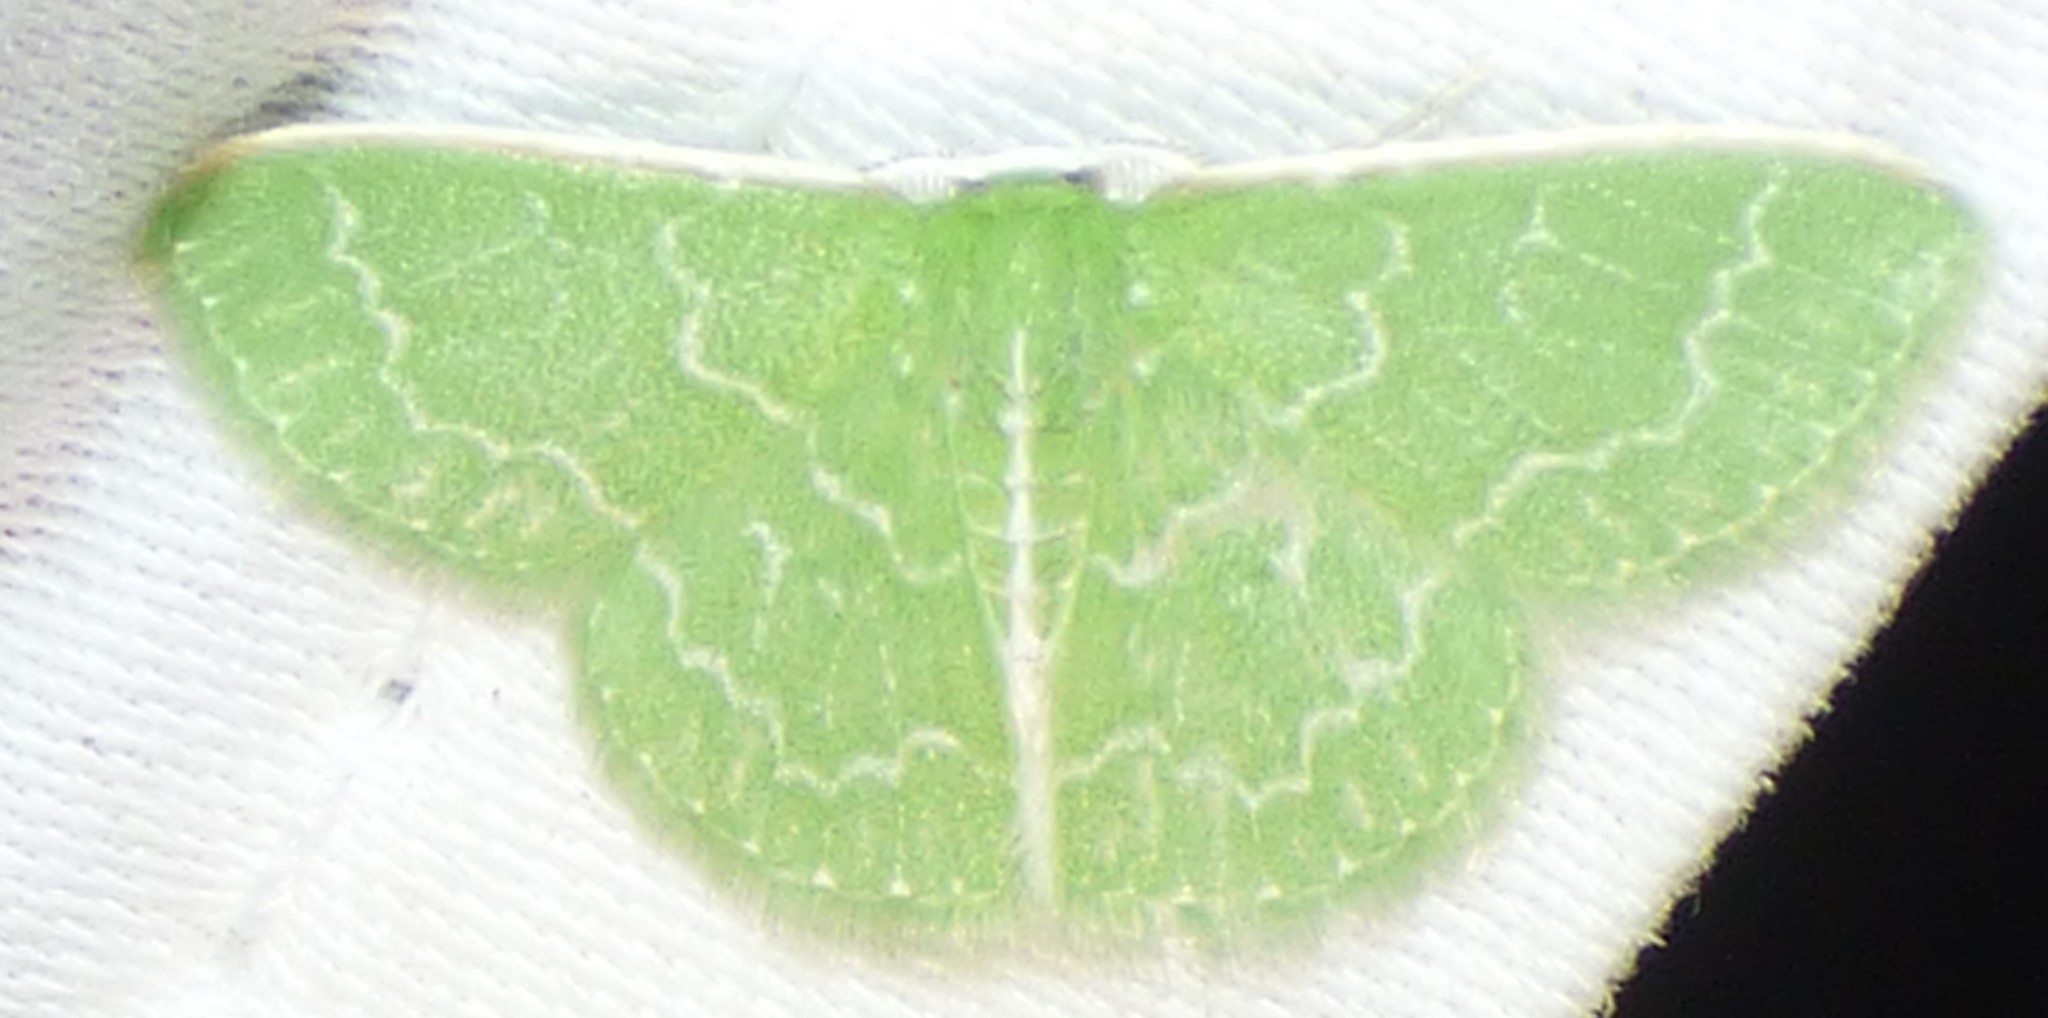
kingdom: Animalia
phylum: Arthropoda
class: Insecta
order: Lepidoptera
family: Geometridae
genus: Synchlora
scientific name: Synchlora frondaria
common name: Southern emerald
